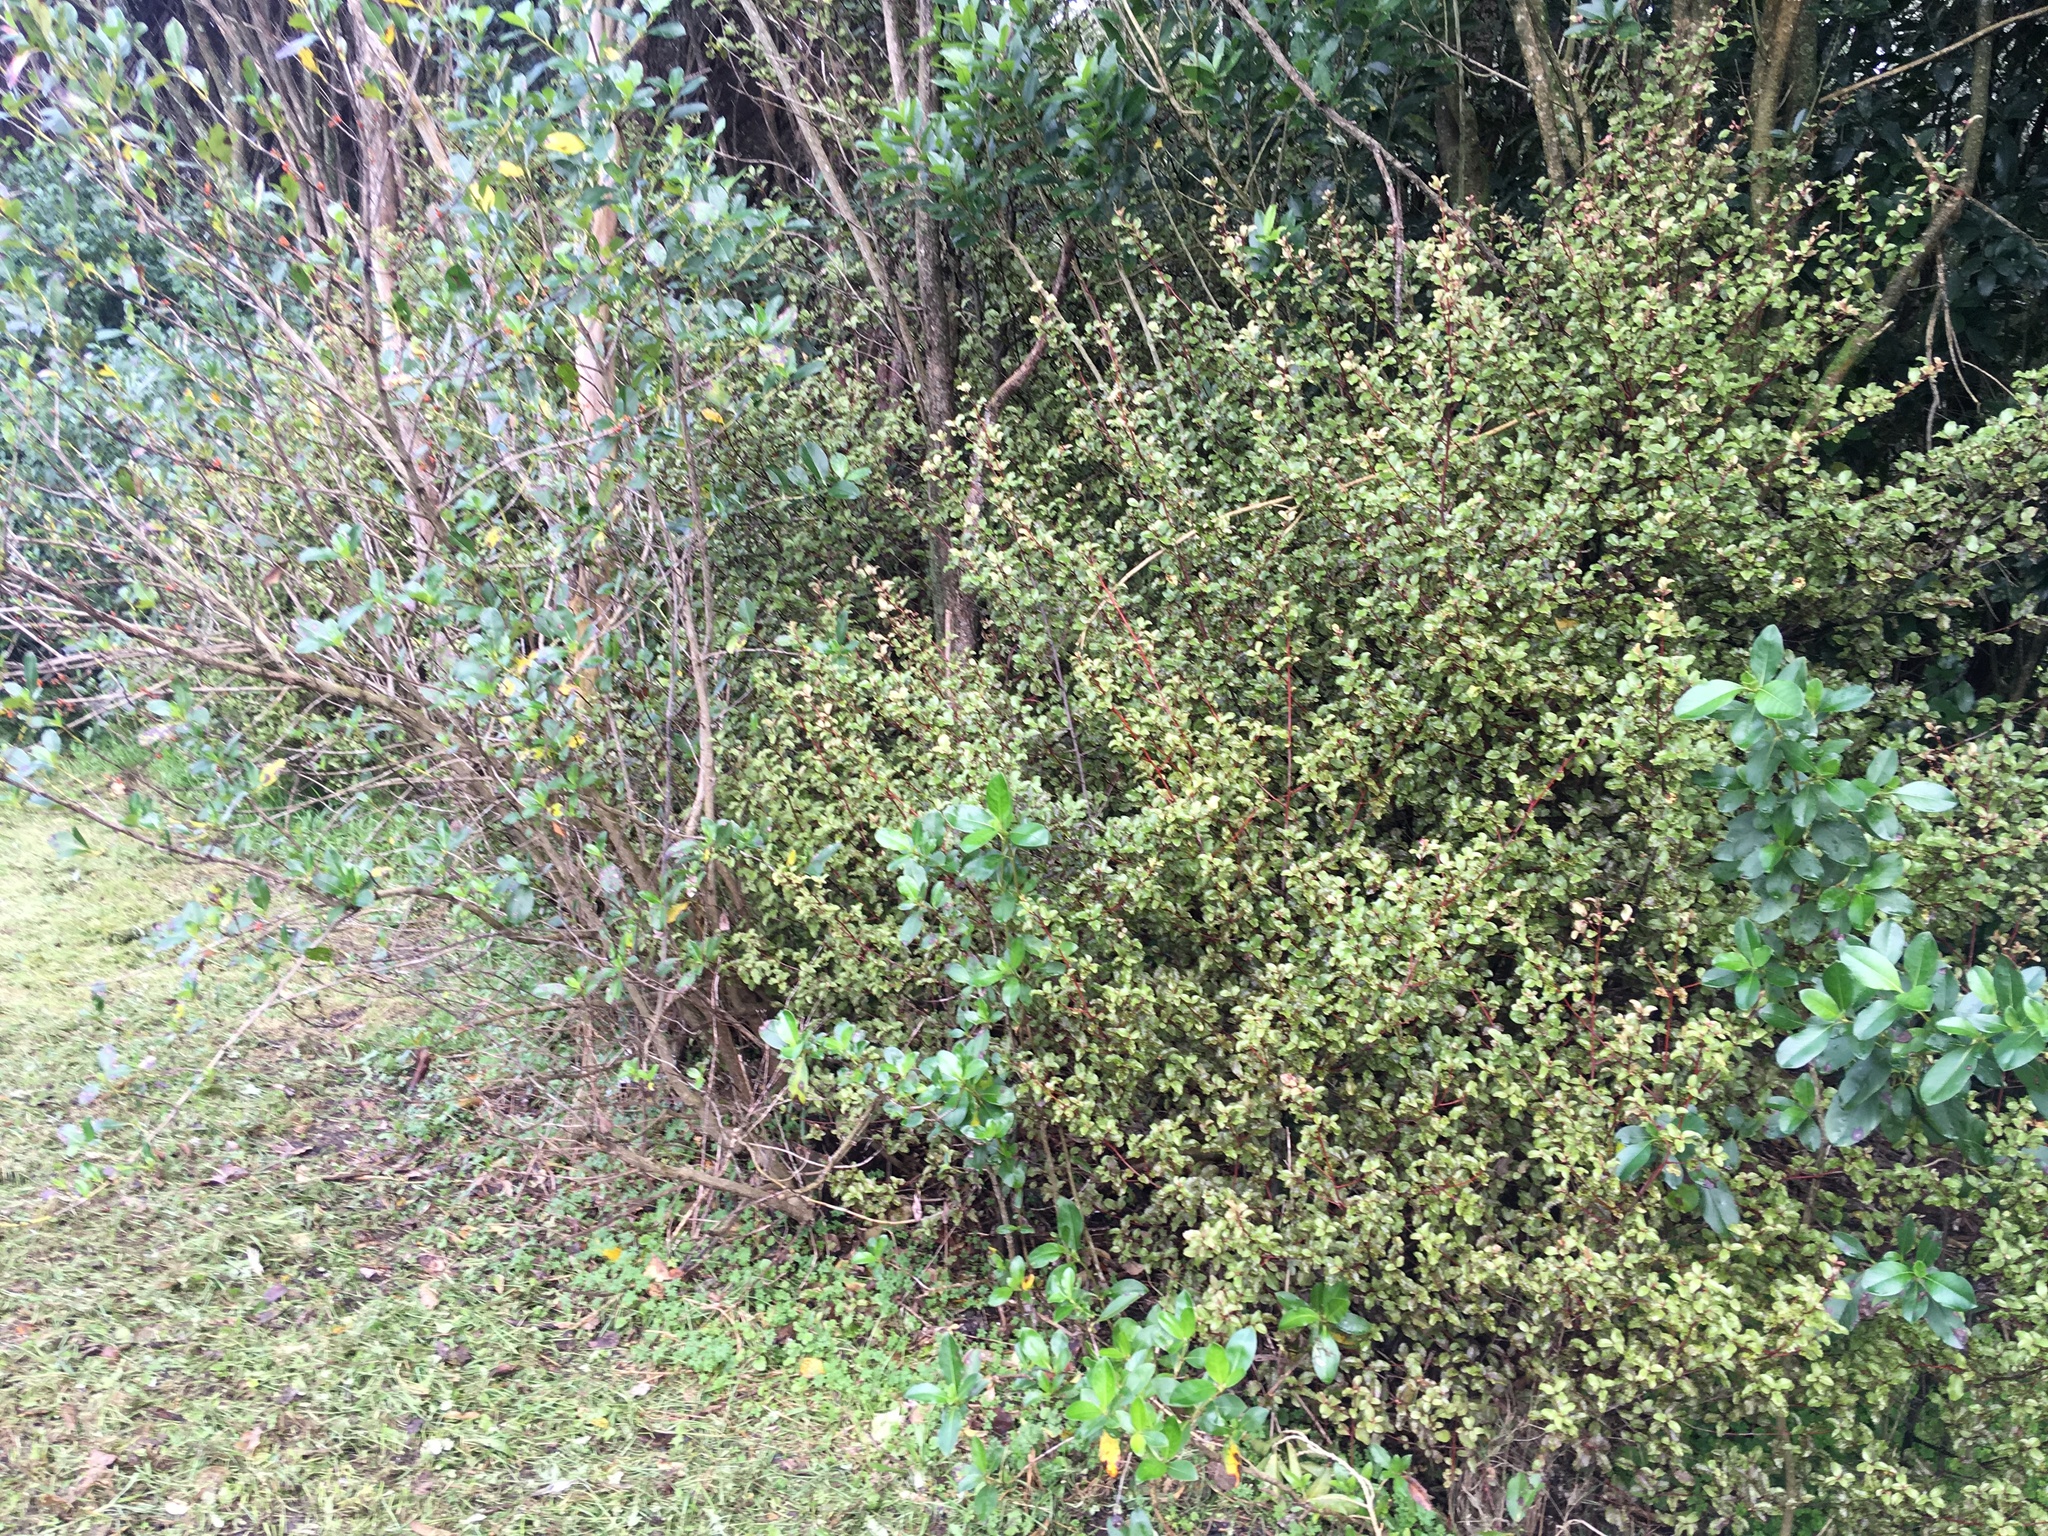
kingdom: Plantae
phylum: Tracheophyta
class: Magnoliopsida
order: Ericales
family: Primulaceae
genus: Myrsine
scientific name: Myrsine australis
